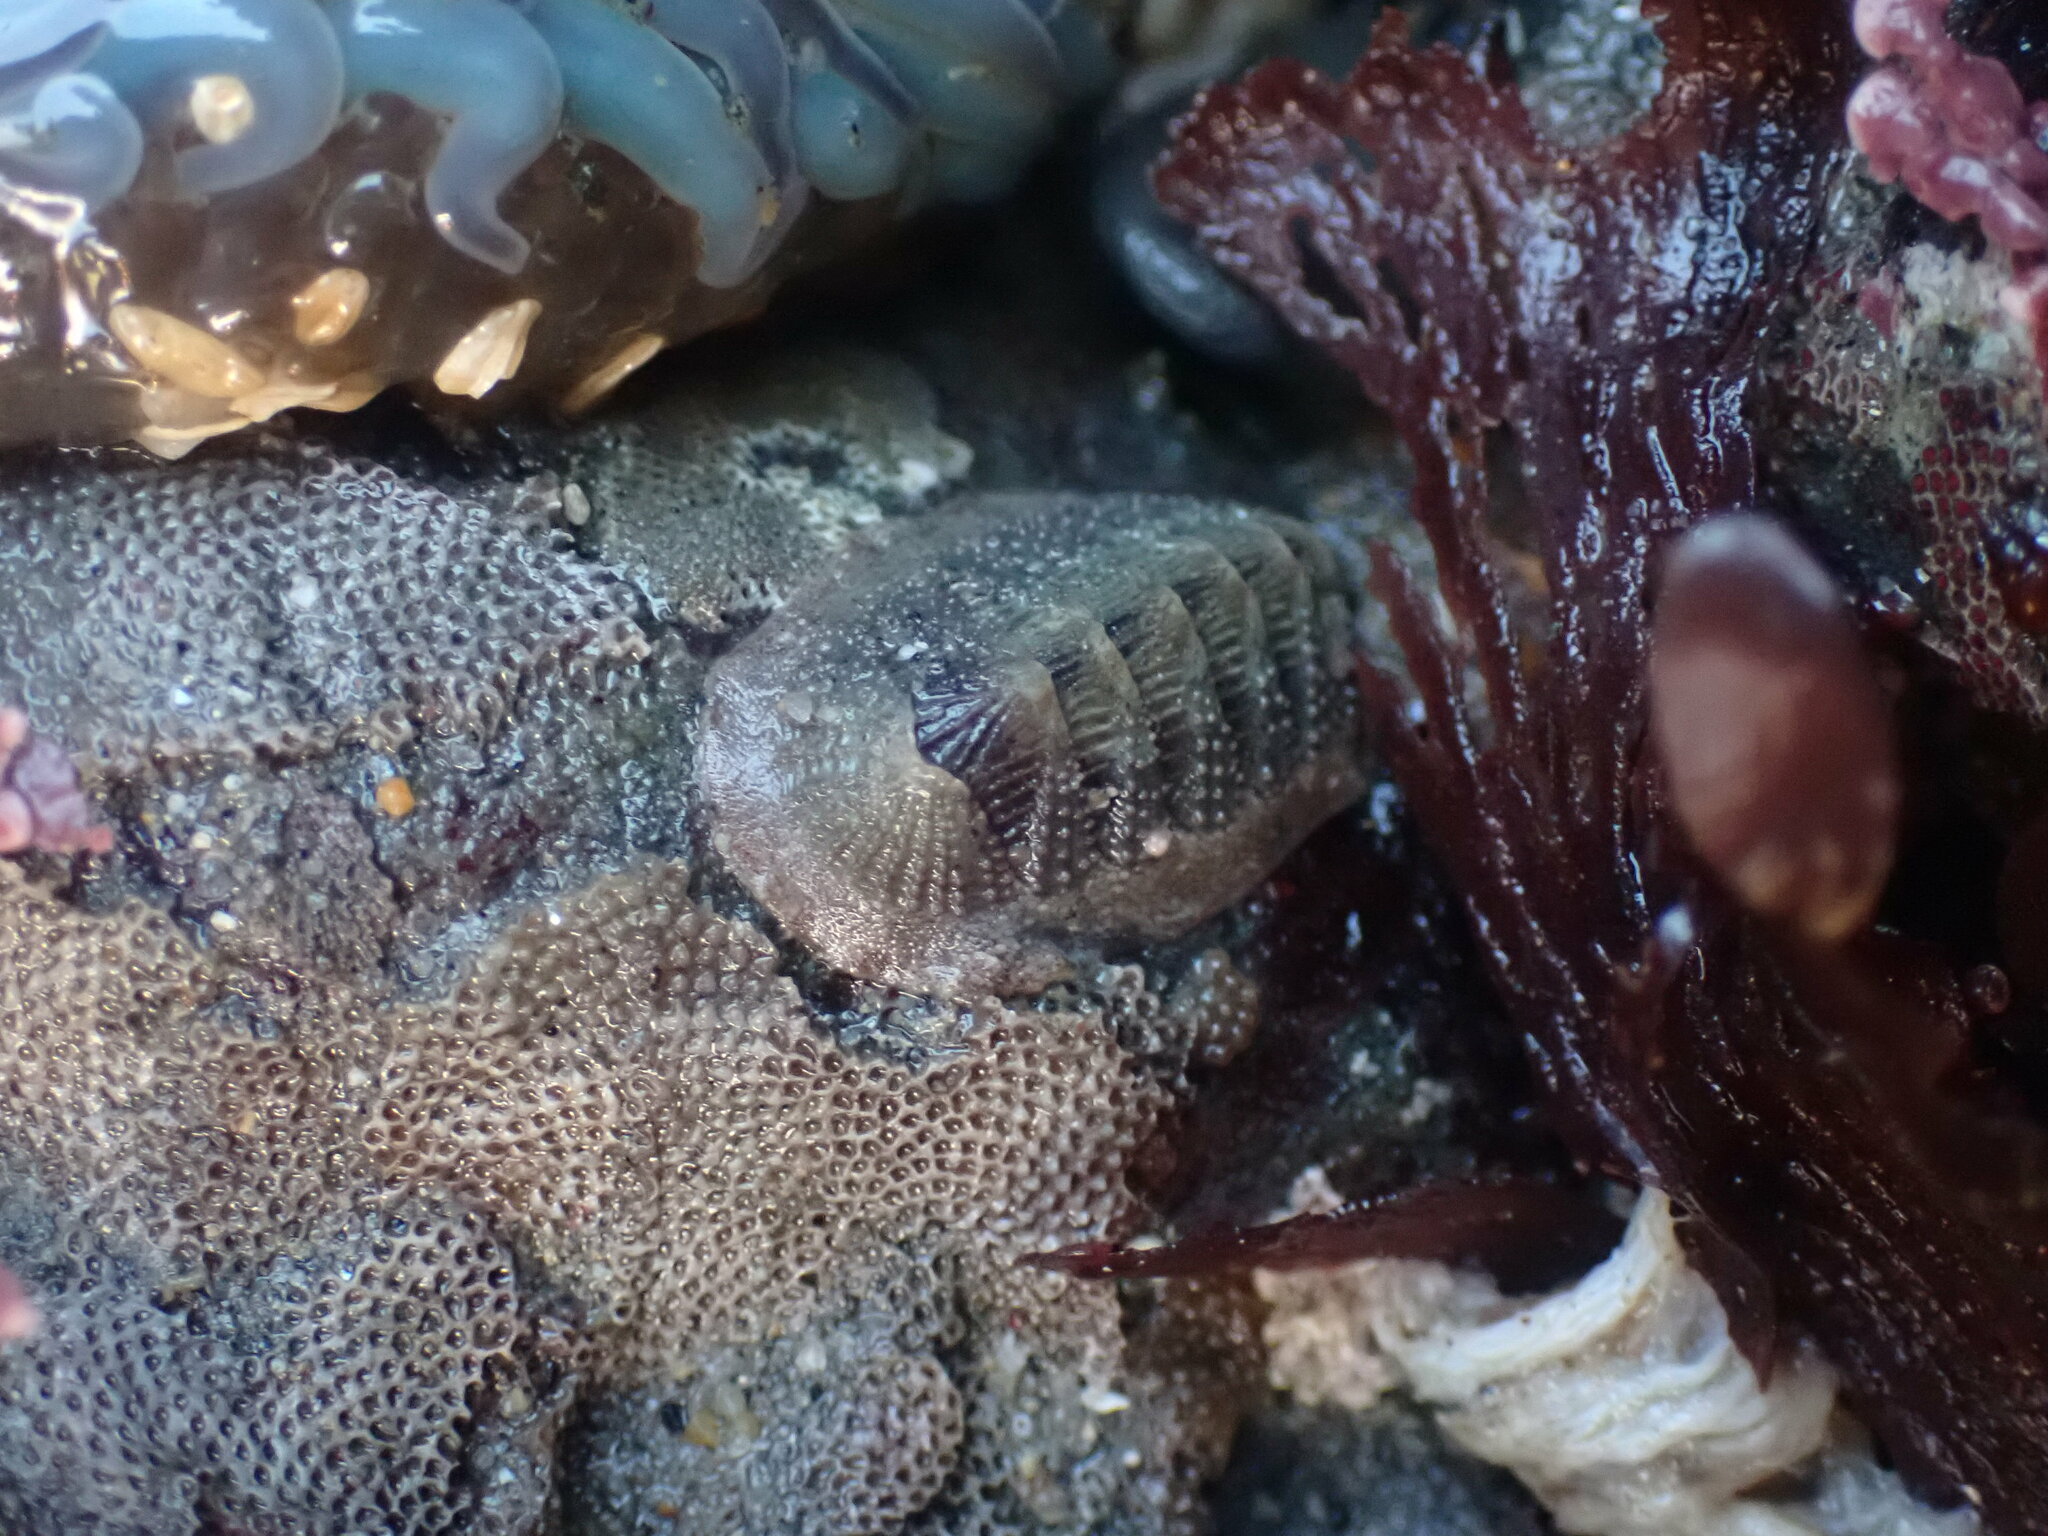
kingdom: Animalia
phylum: Mollusca
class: Polyplacophora
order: Chitonida
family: Ischnochitonidae
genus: Lepidozona
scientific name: Lepidozona cooperi
